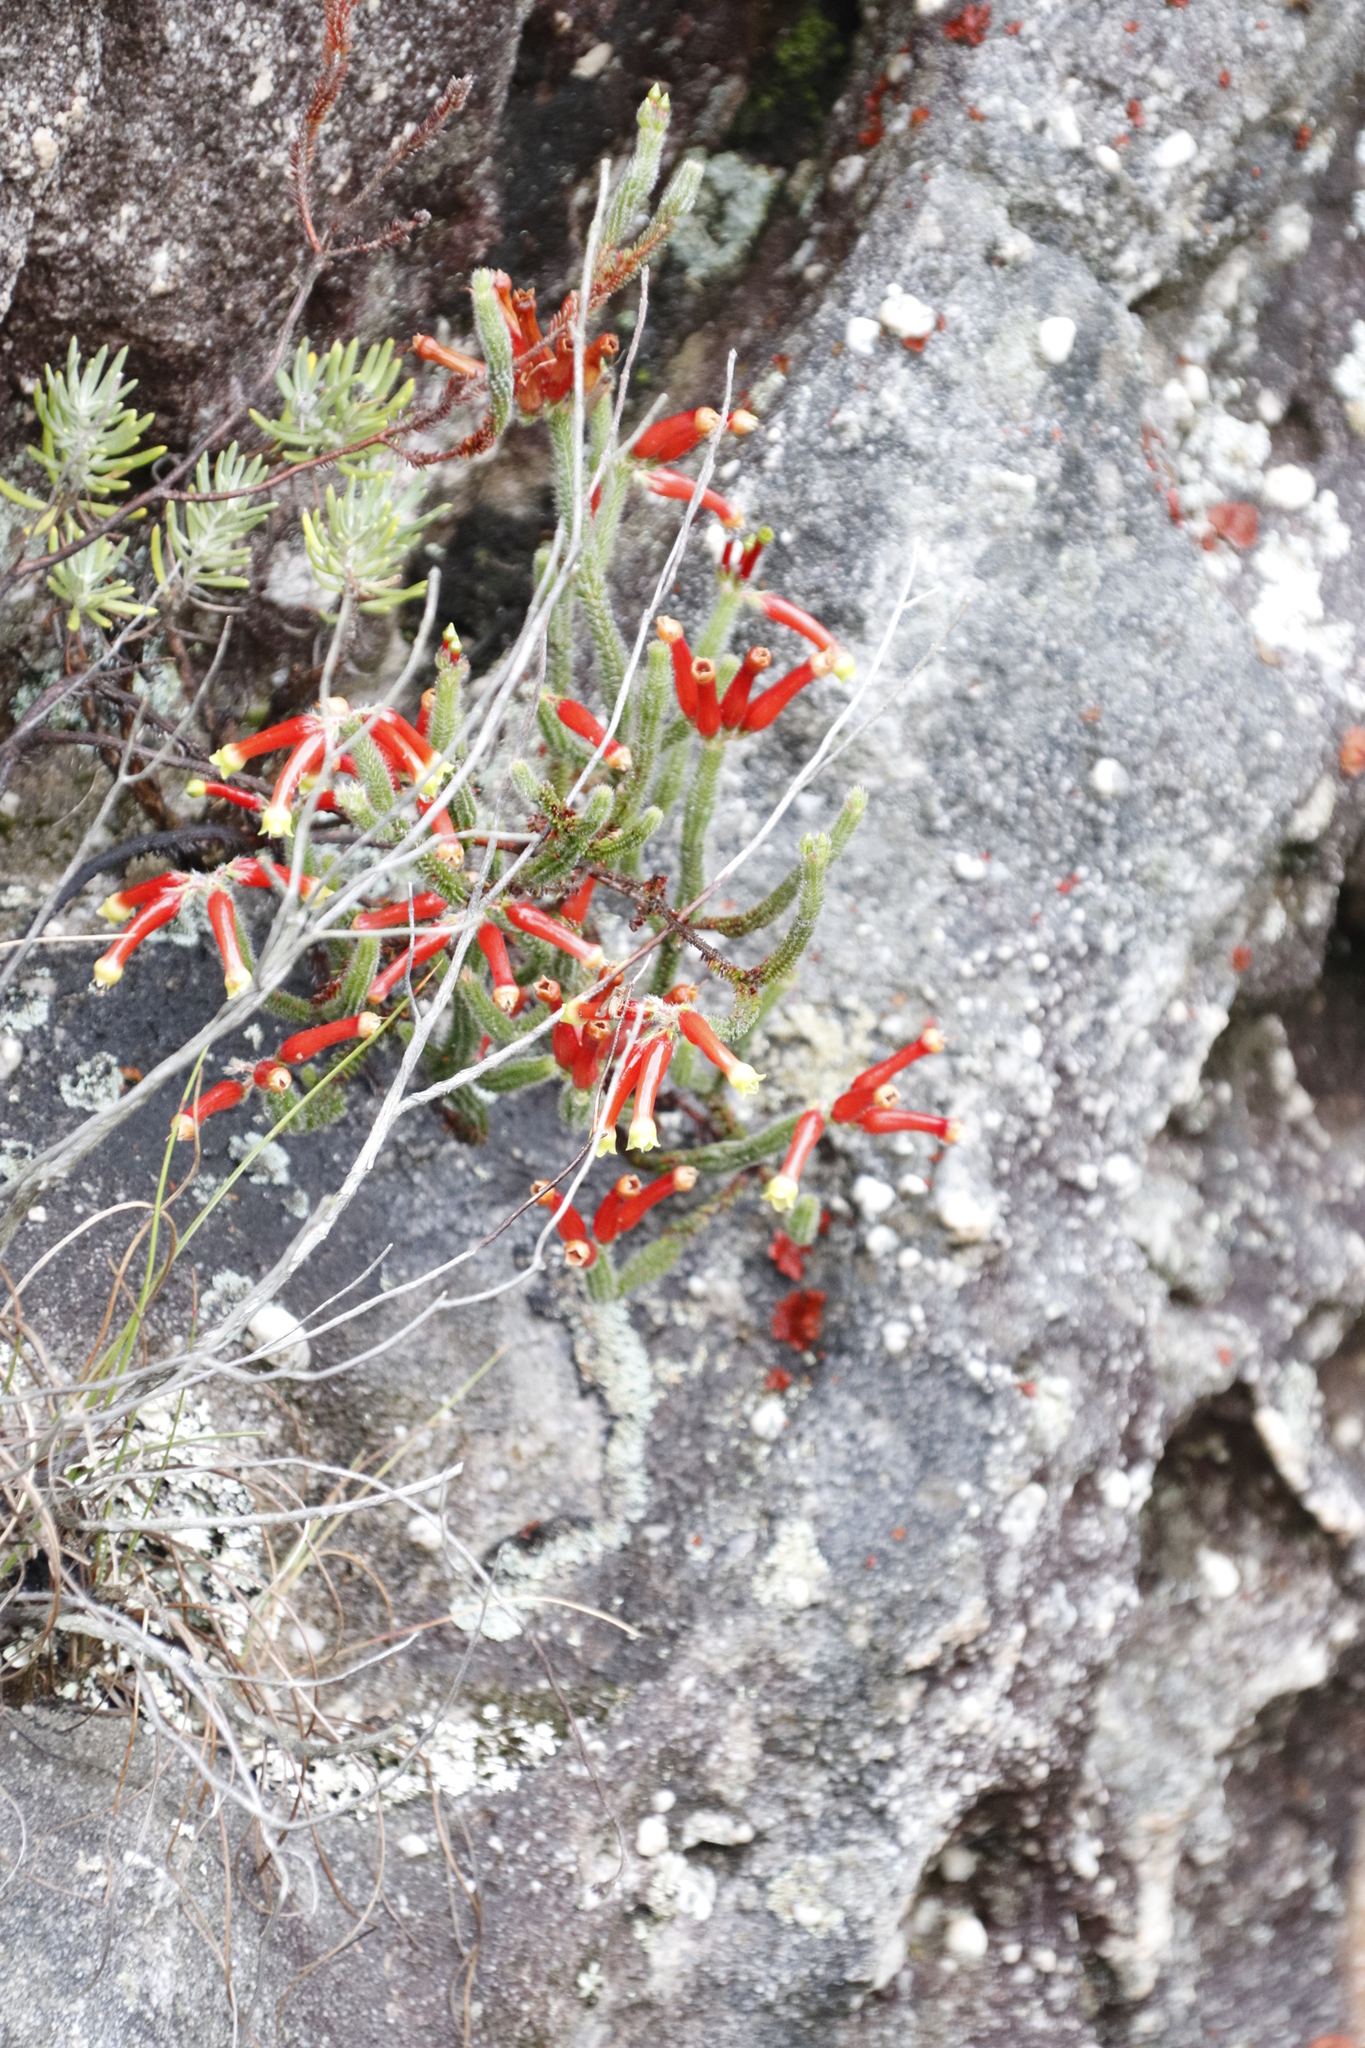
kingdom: Plantae
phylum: Tracheophyta
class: Magnoliopsida
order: Ericales
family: Ericaceae
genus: Erica
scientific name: Erica massonii
